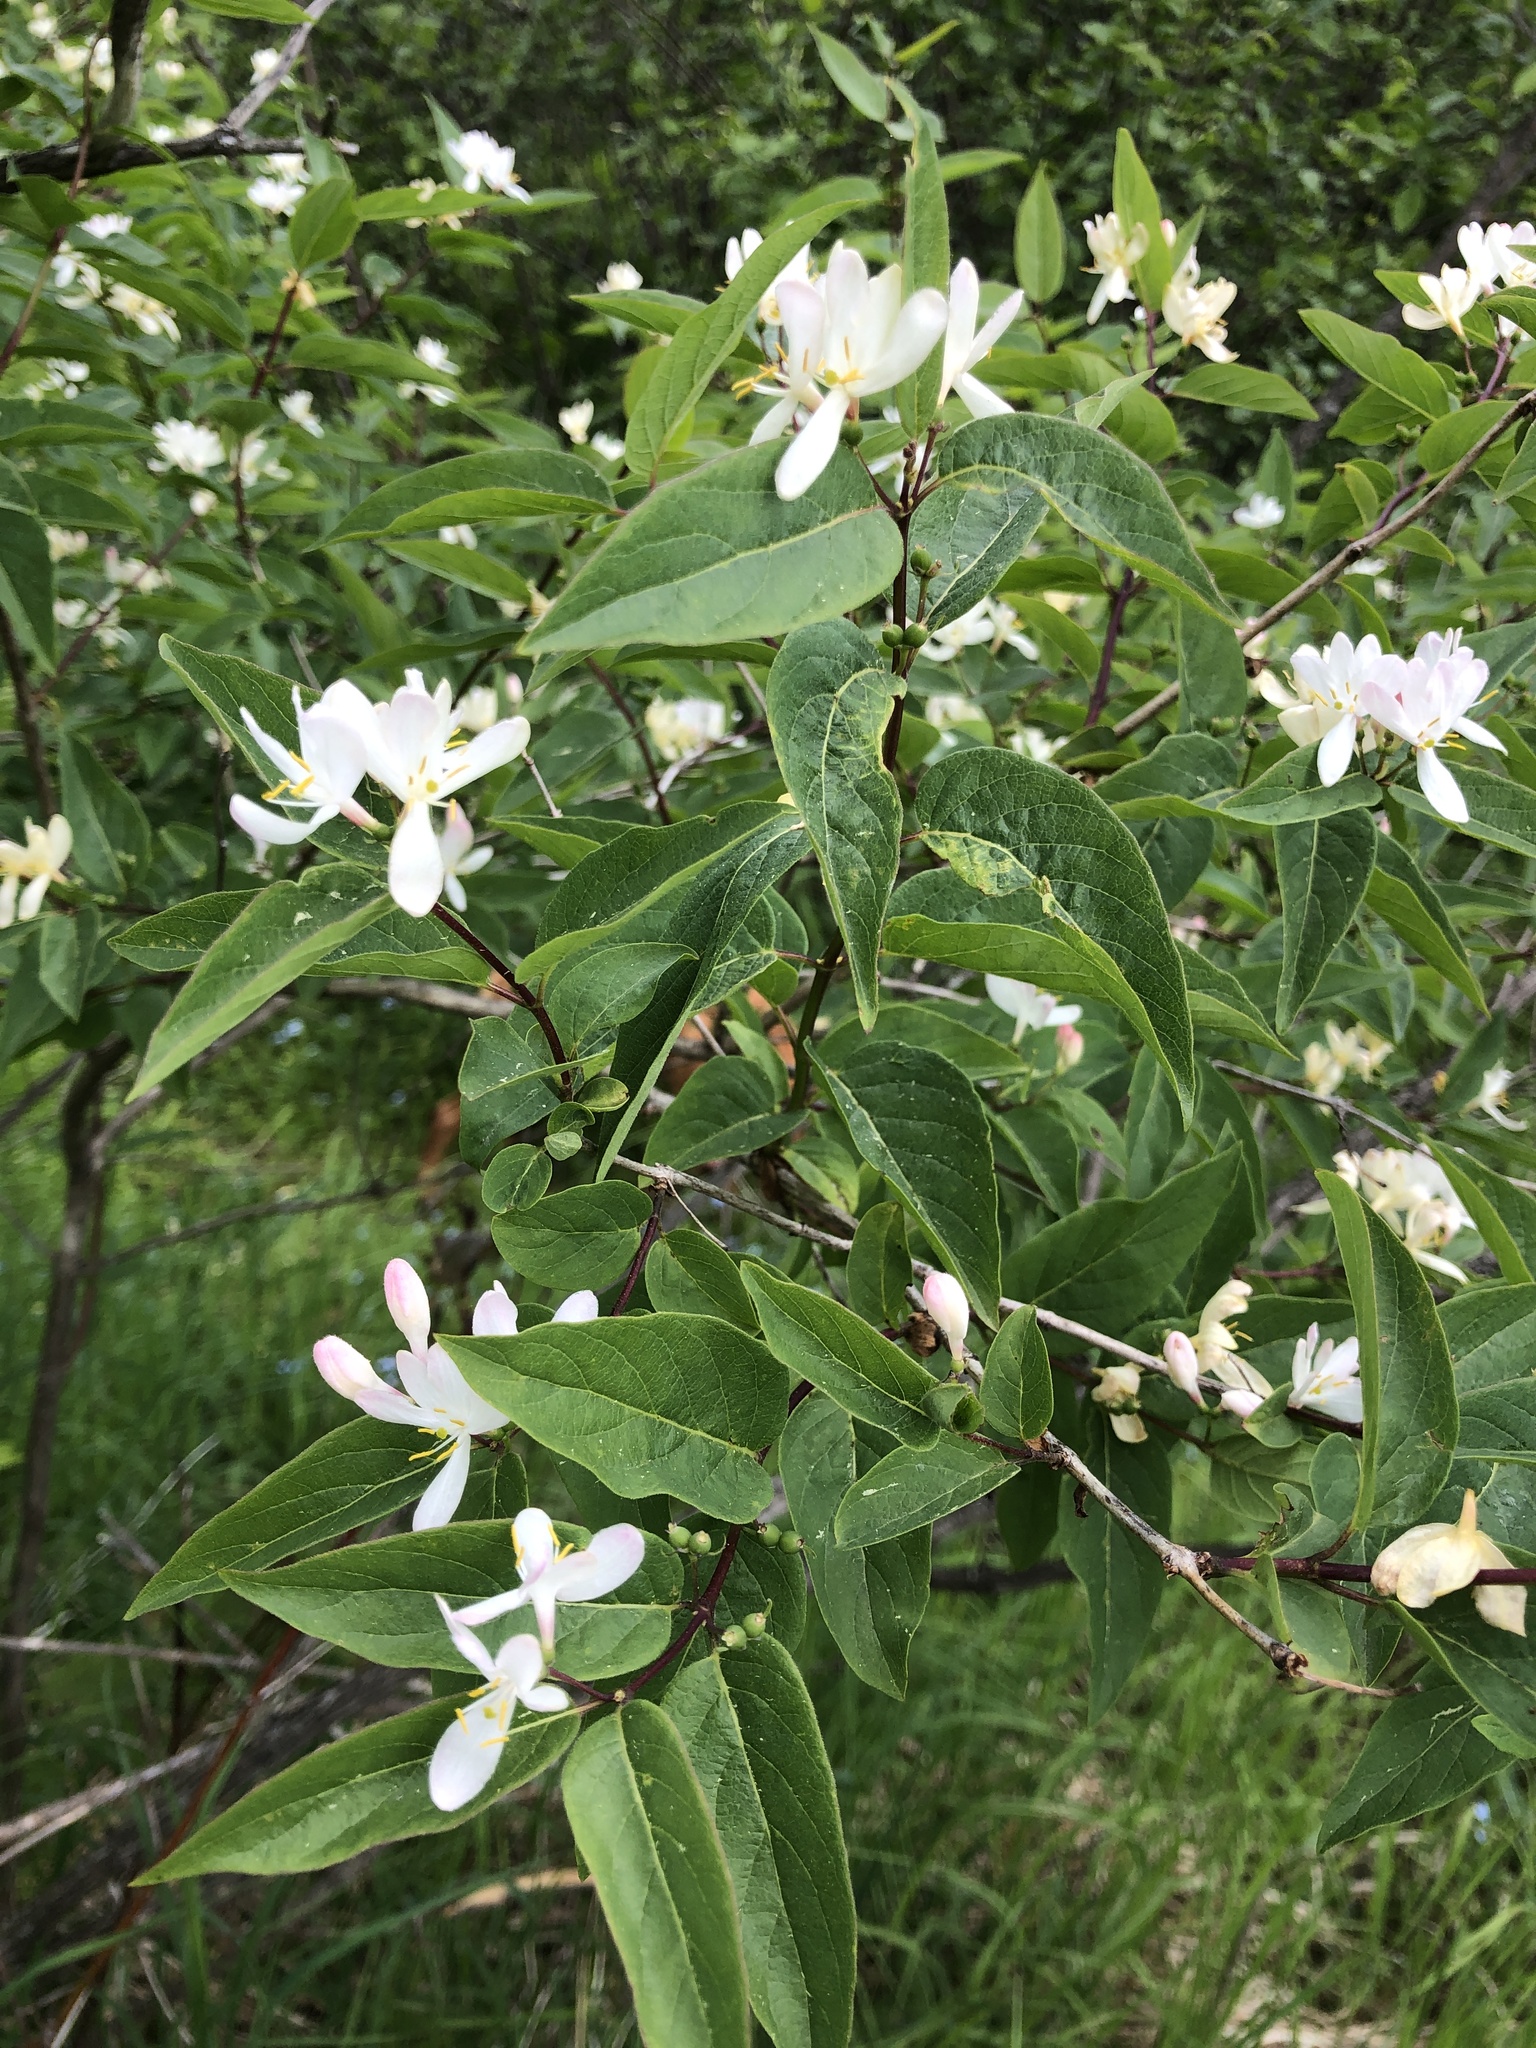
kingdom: Plantae
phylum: Tracheophyta
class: Magnoliopsida
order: Dipsacales
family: Caprifoliaceae
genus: Lonicera
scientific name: Lonicera tatarica
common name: Tatarian honeysuckle
